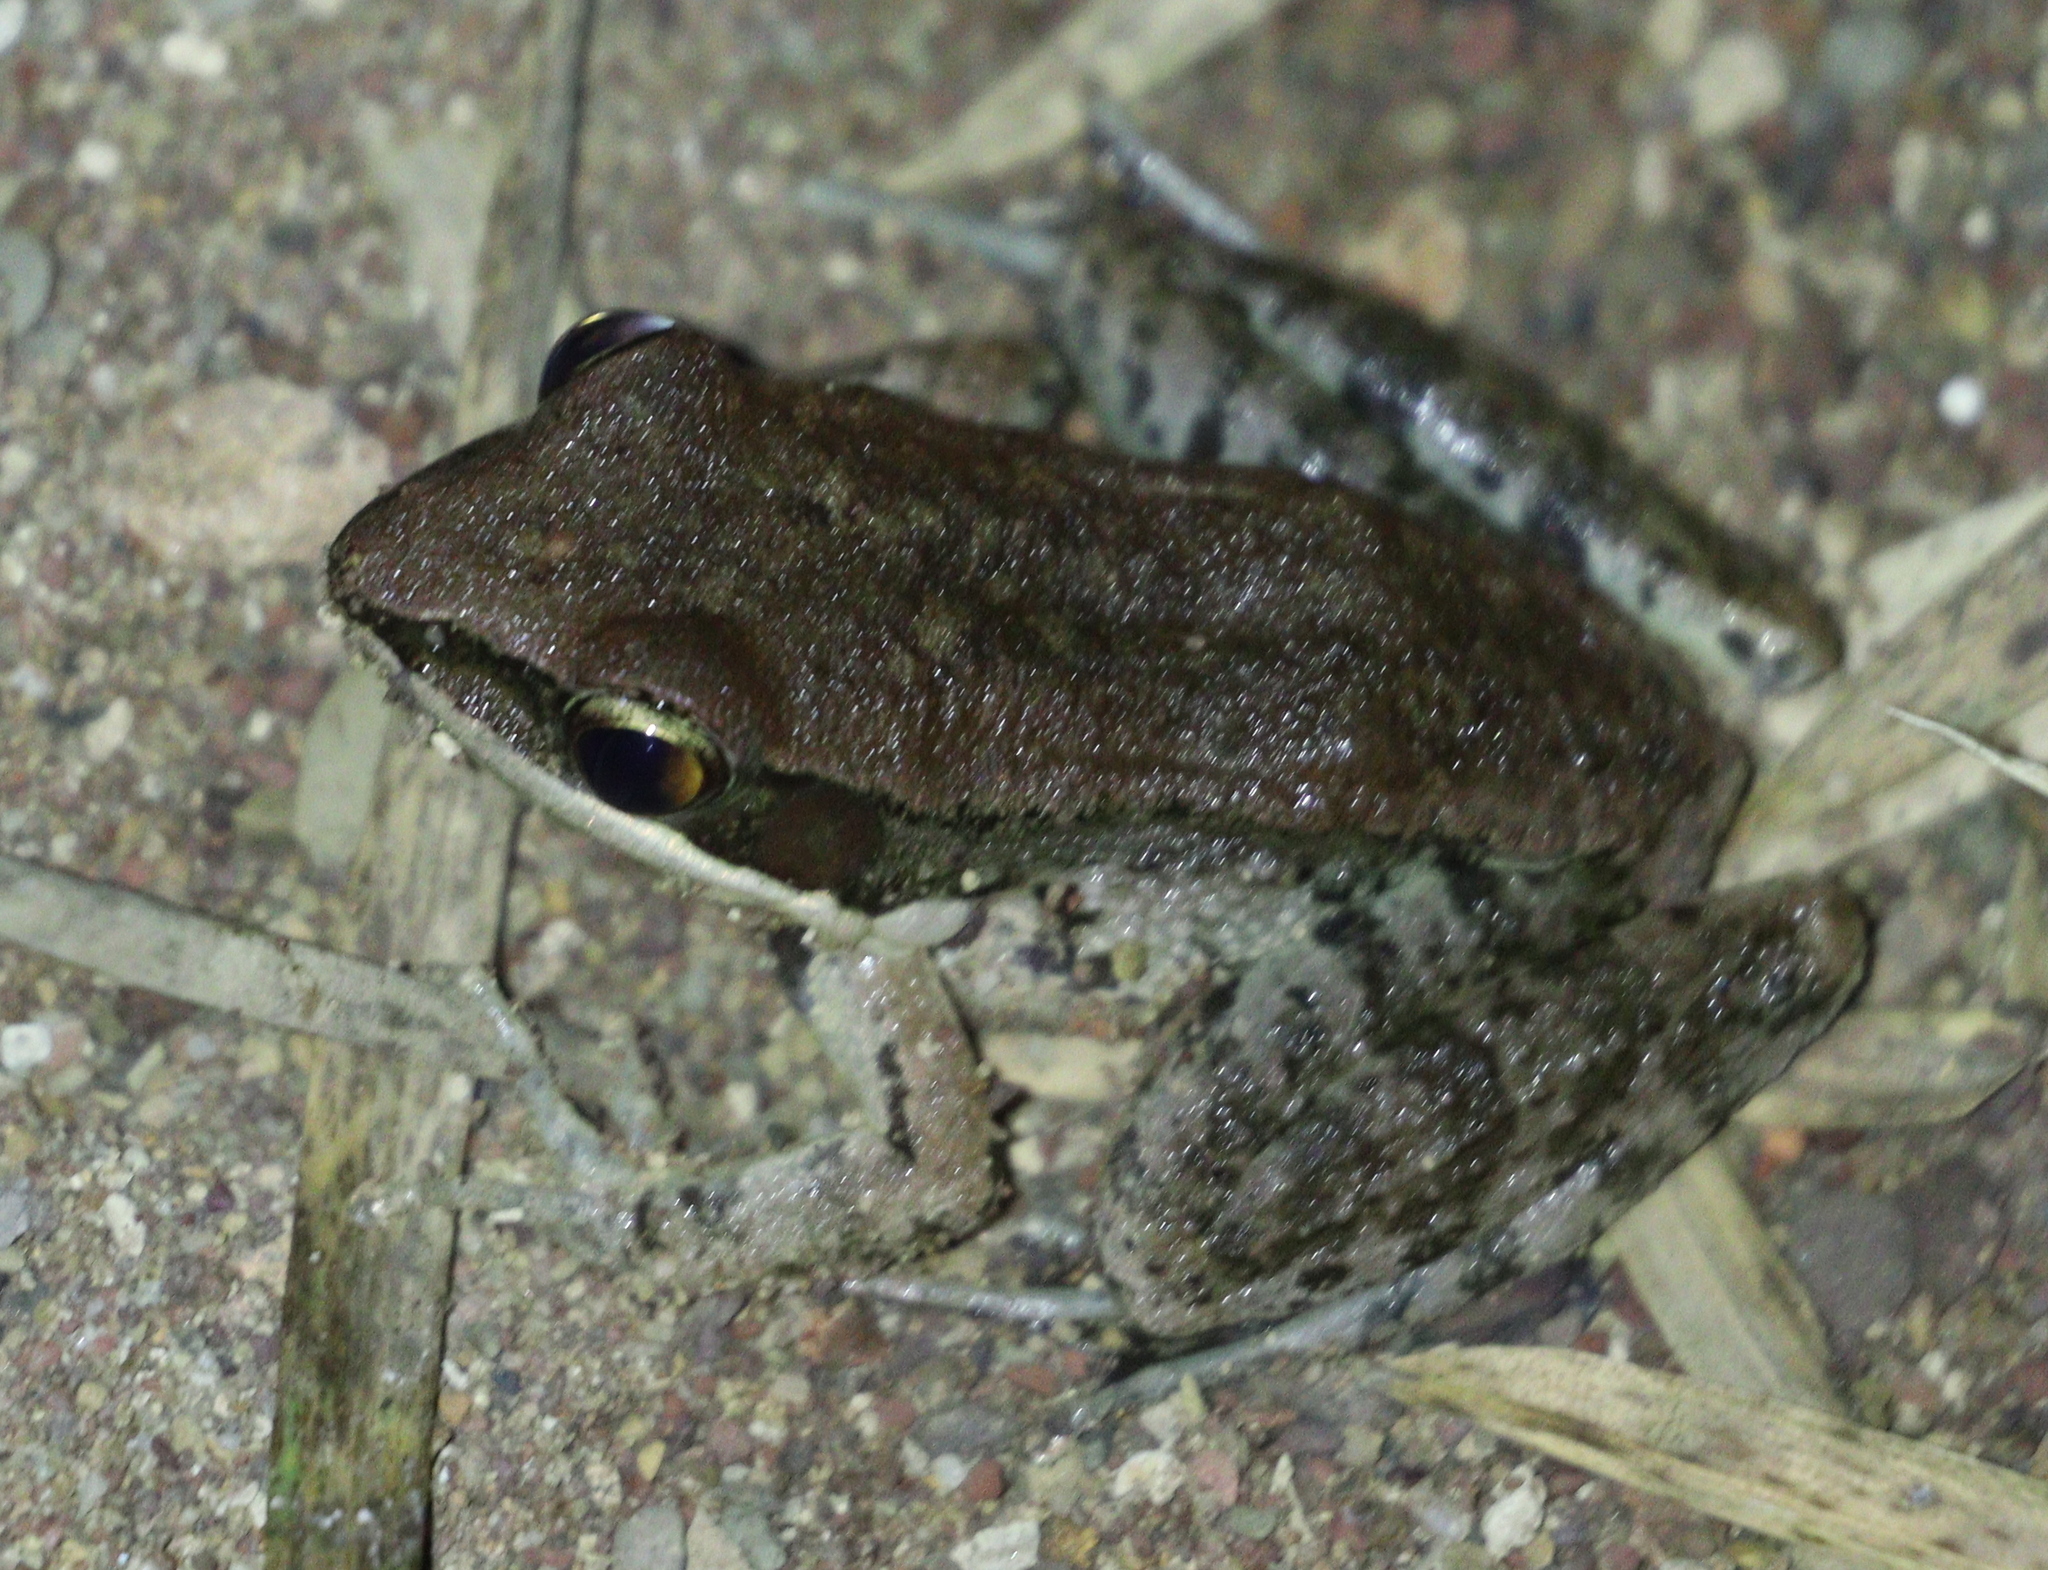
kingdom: Animalia
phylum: Chordata
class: Amphibia
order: Anura
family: Ranidae
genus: Sylvirana
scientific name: Sylvirana nigrovittata
